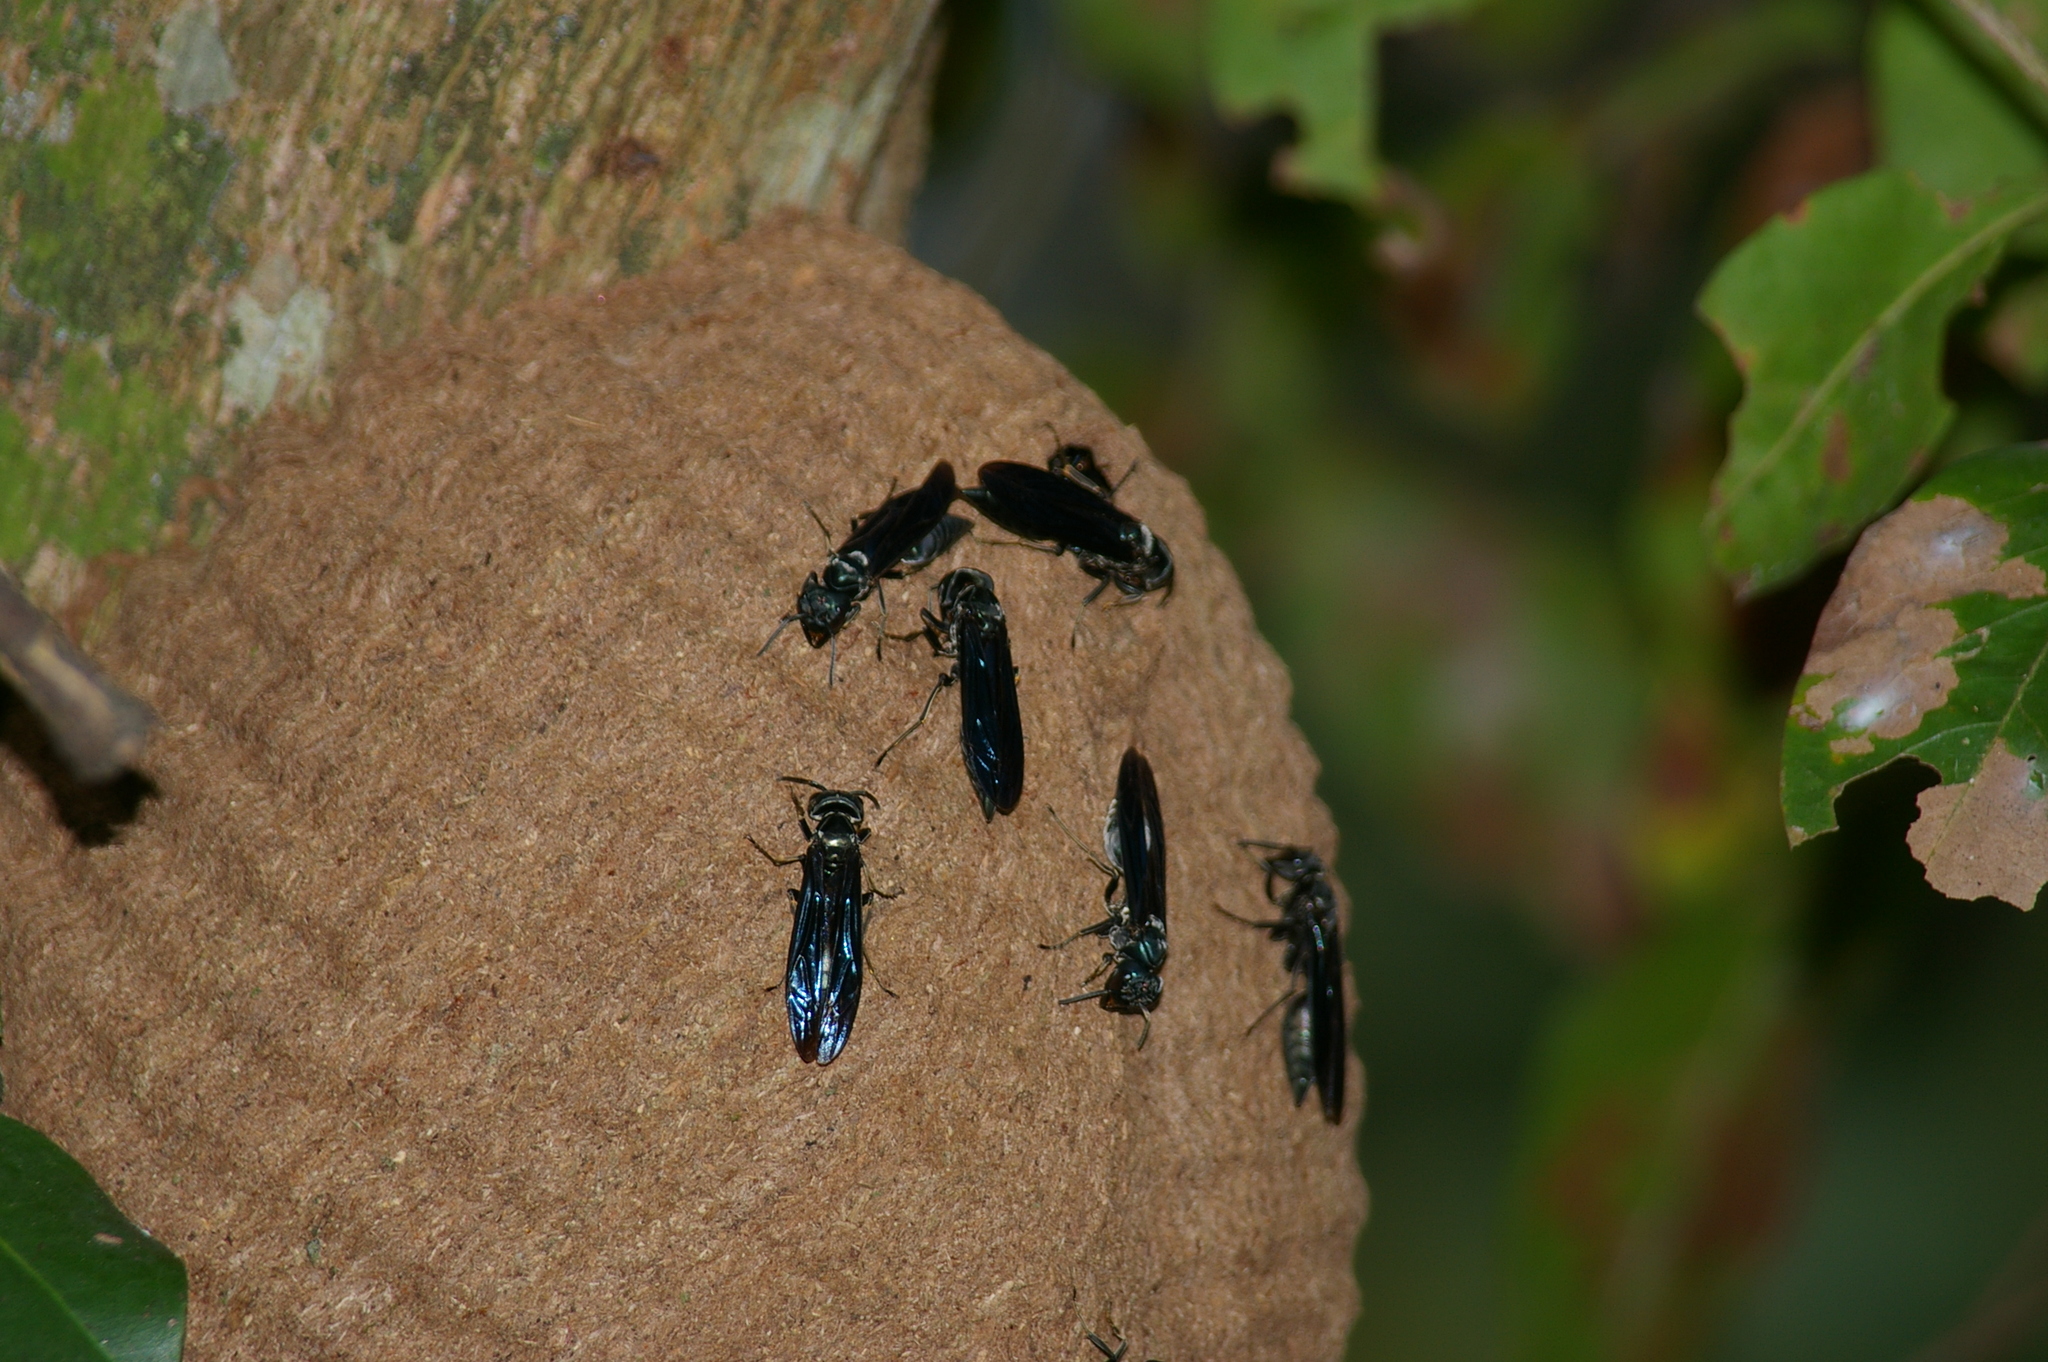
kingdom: Animalia
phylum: Arthropoda
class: Insecta
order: Hymenoptera
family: Vespidae
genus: Synoeca
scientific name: Synoeca surinama
